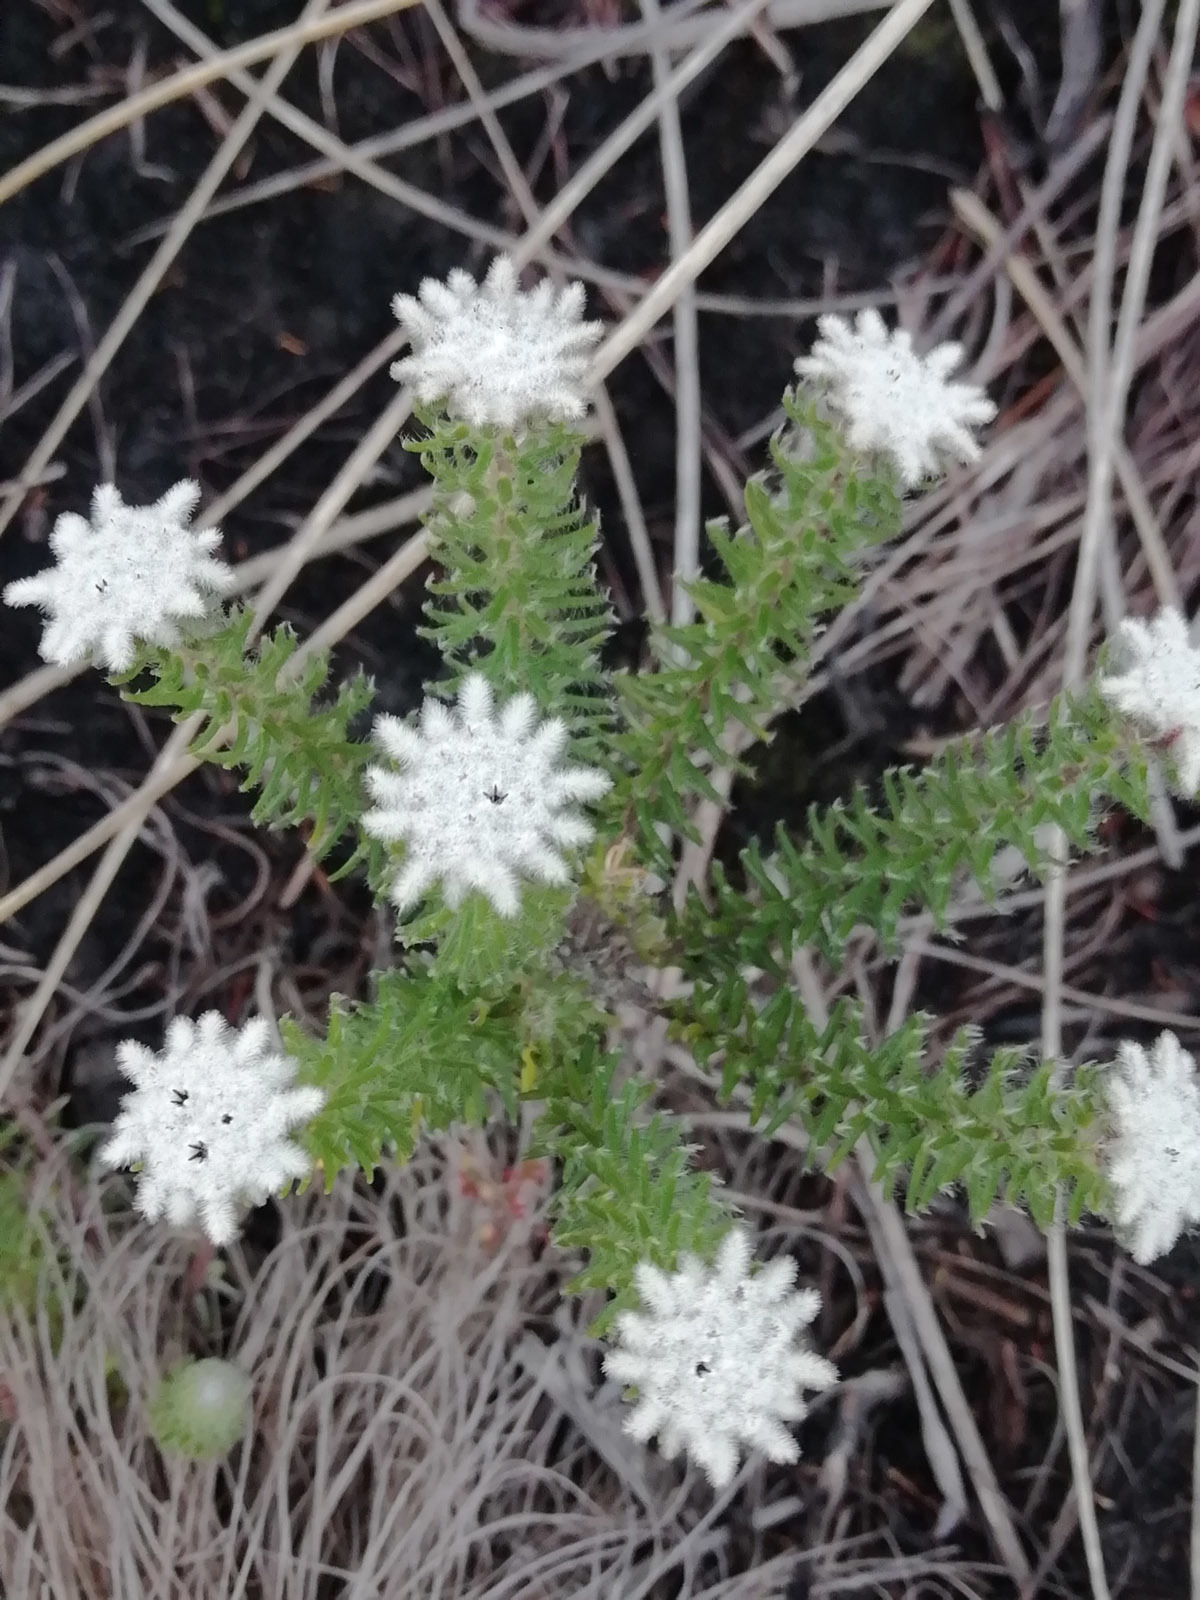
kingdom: Plantae
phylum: Tracheophyta
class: Magnoliopsida
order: Rosales
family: Rhamnaceae
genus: Phylica
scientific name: Phylica curvifolia
